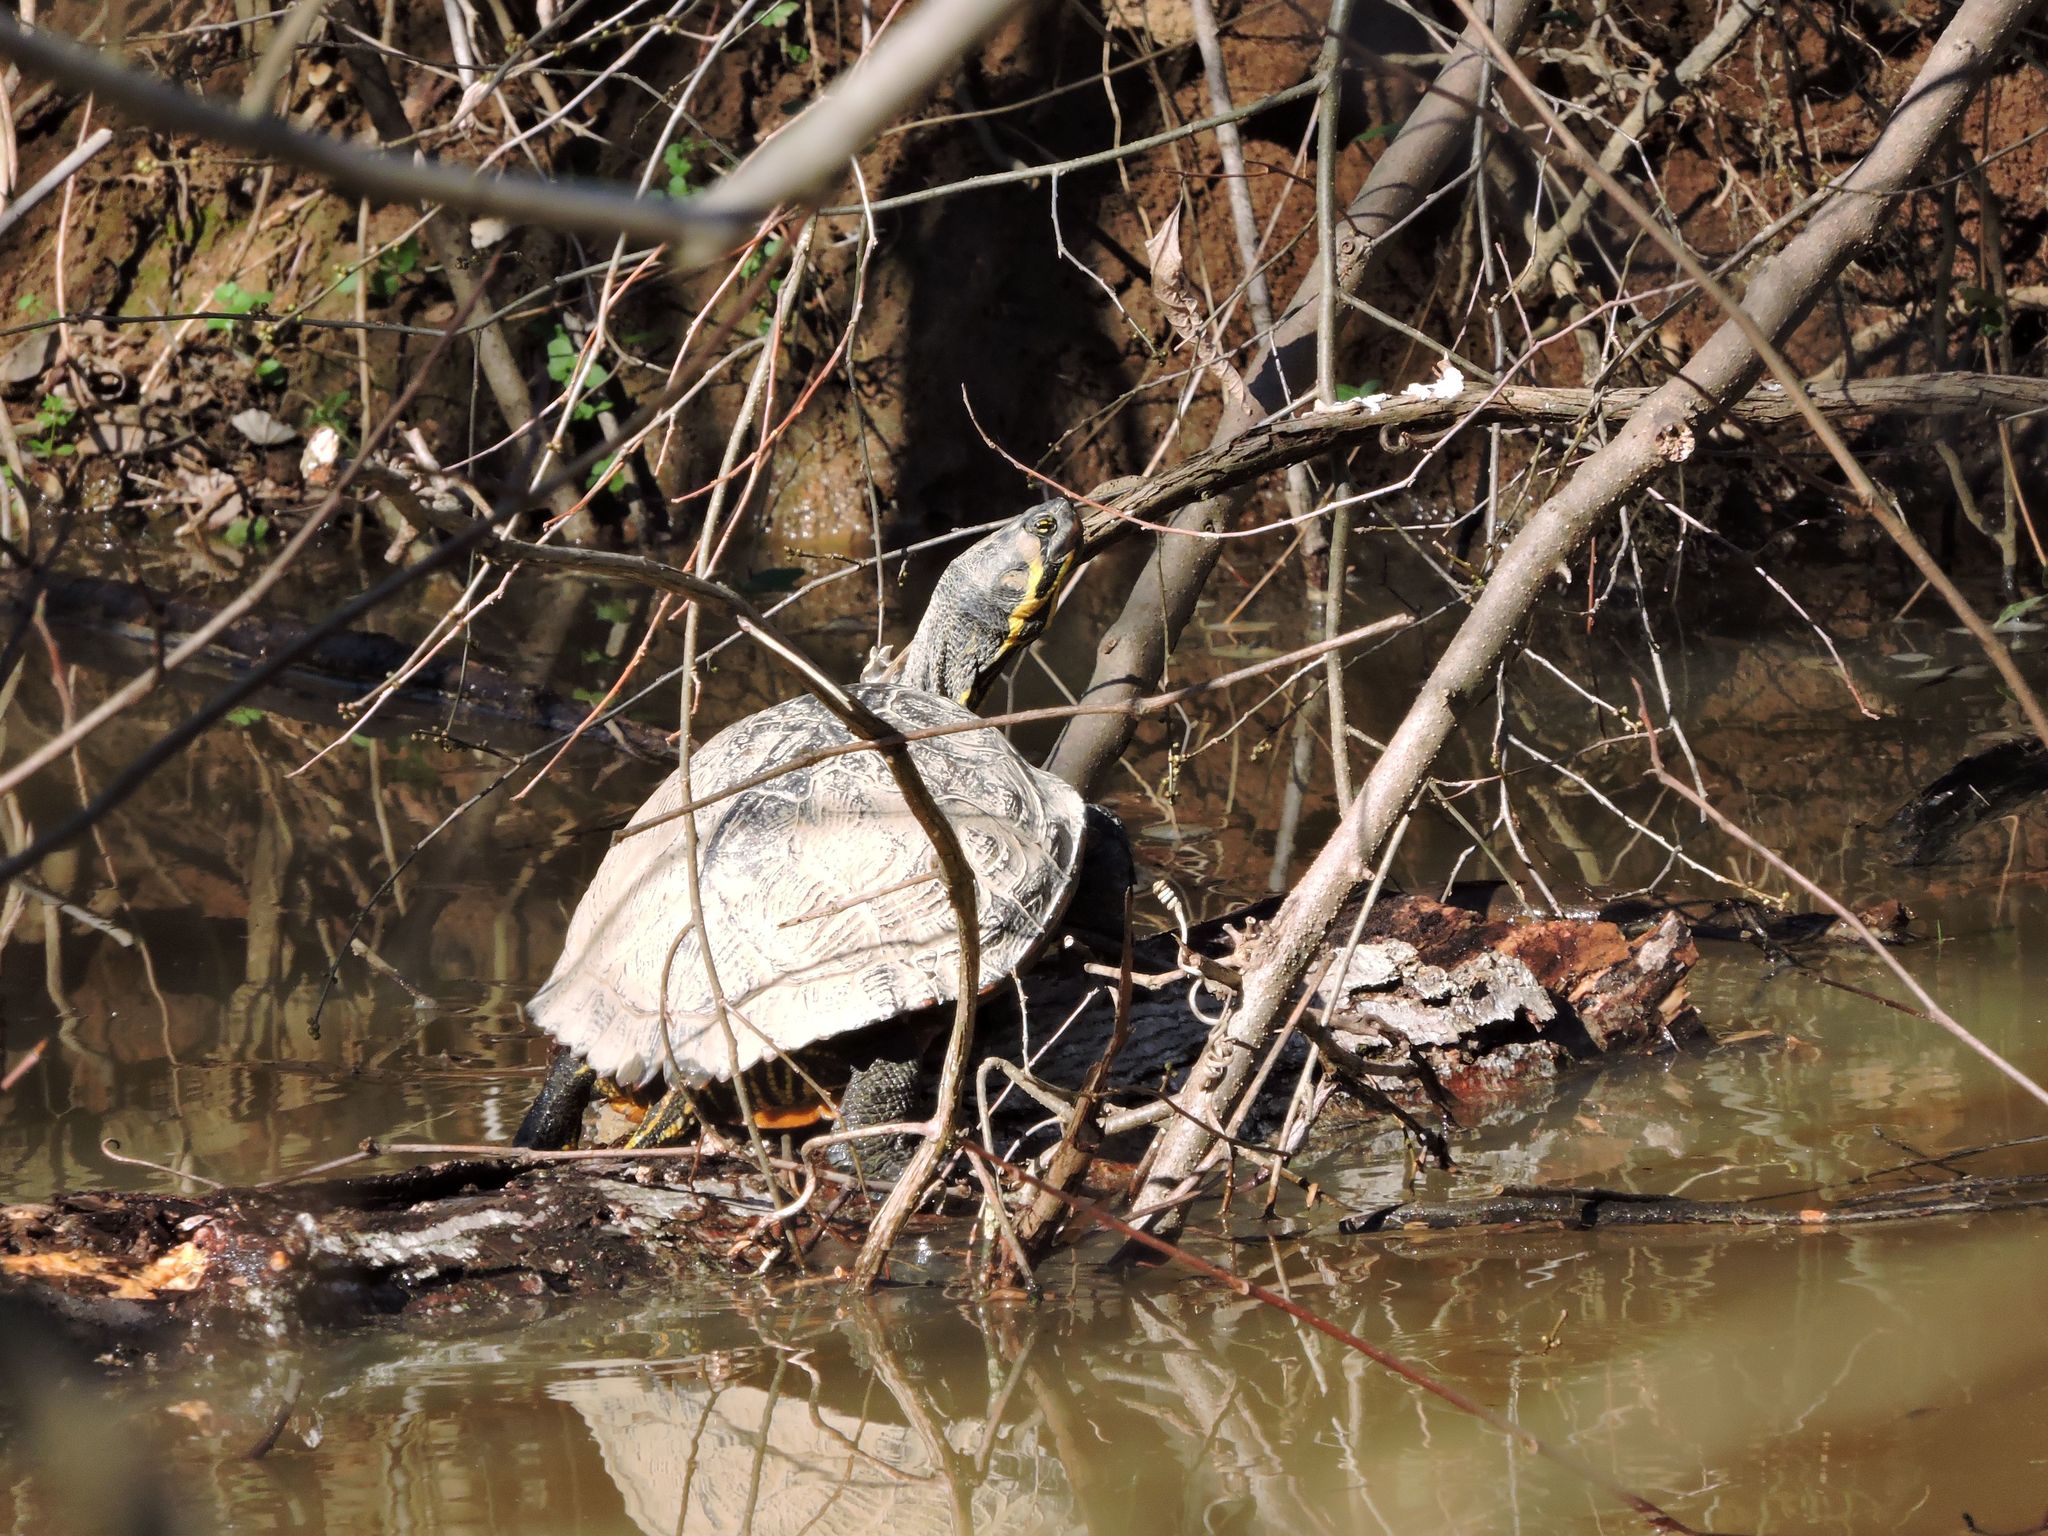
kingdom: Animalia
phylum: Chordata
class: Testudines
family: Emydidae
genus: Trachemys
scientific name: Trachemys scripta
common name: Slider
